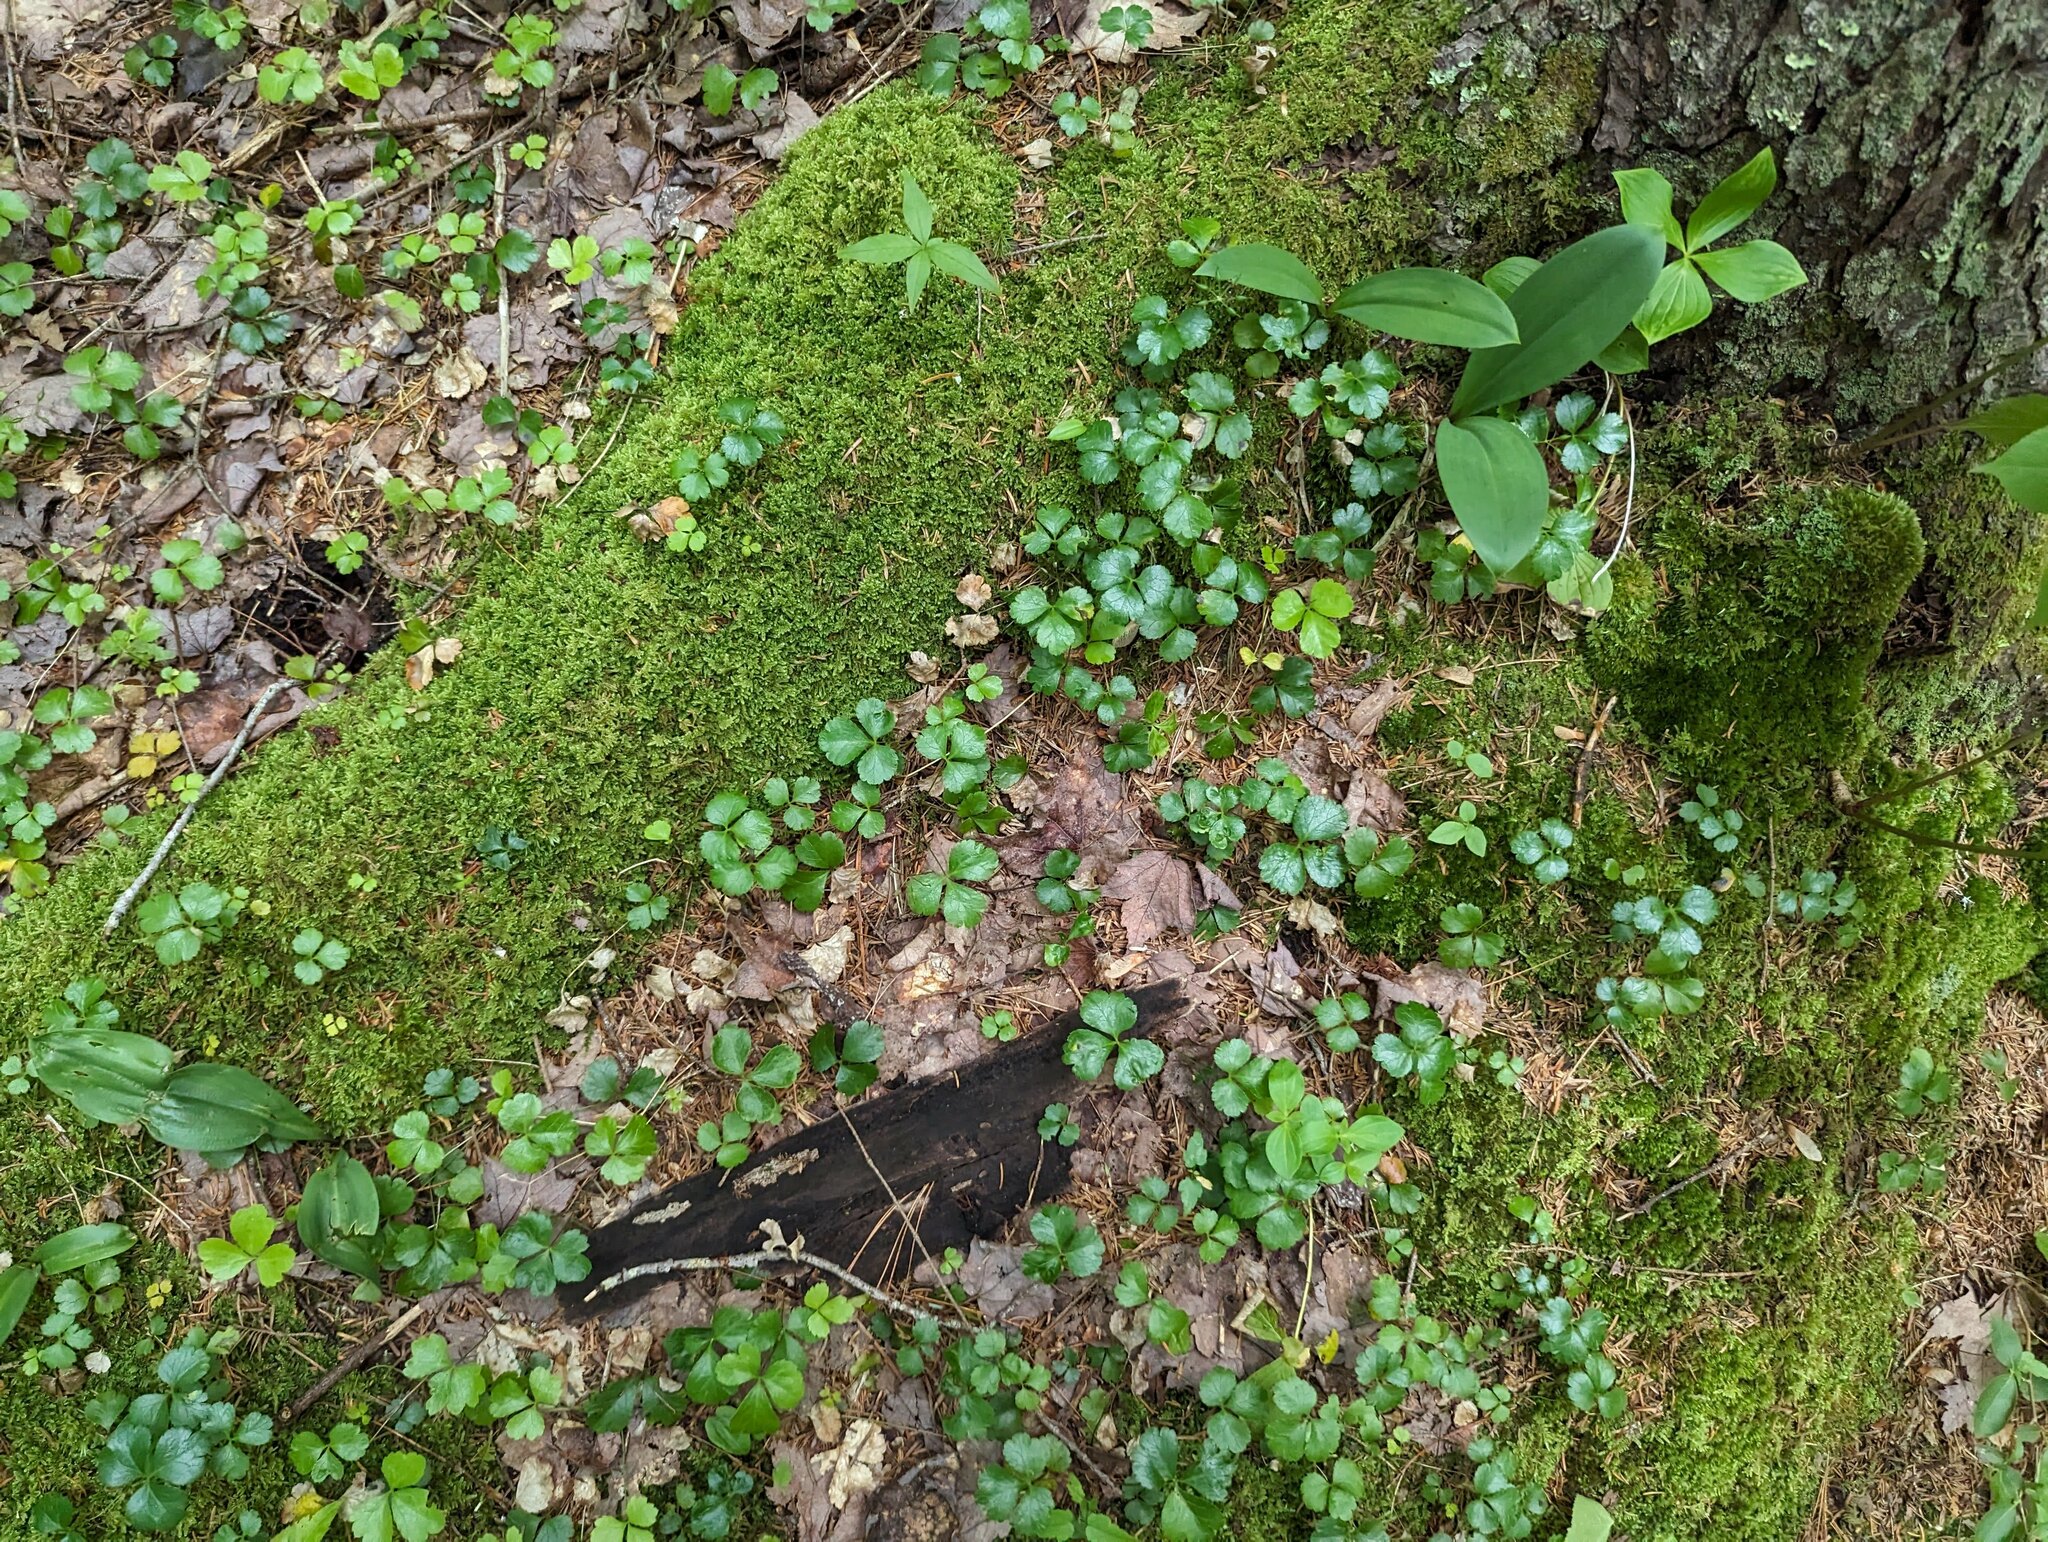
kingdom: Plantae
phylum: Tracheophyta
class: Magnoliopsida
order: Ranunculales
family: Ranunculaceae
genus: Coptis
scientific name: Coptis trifolia
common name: Canker-root
